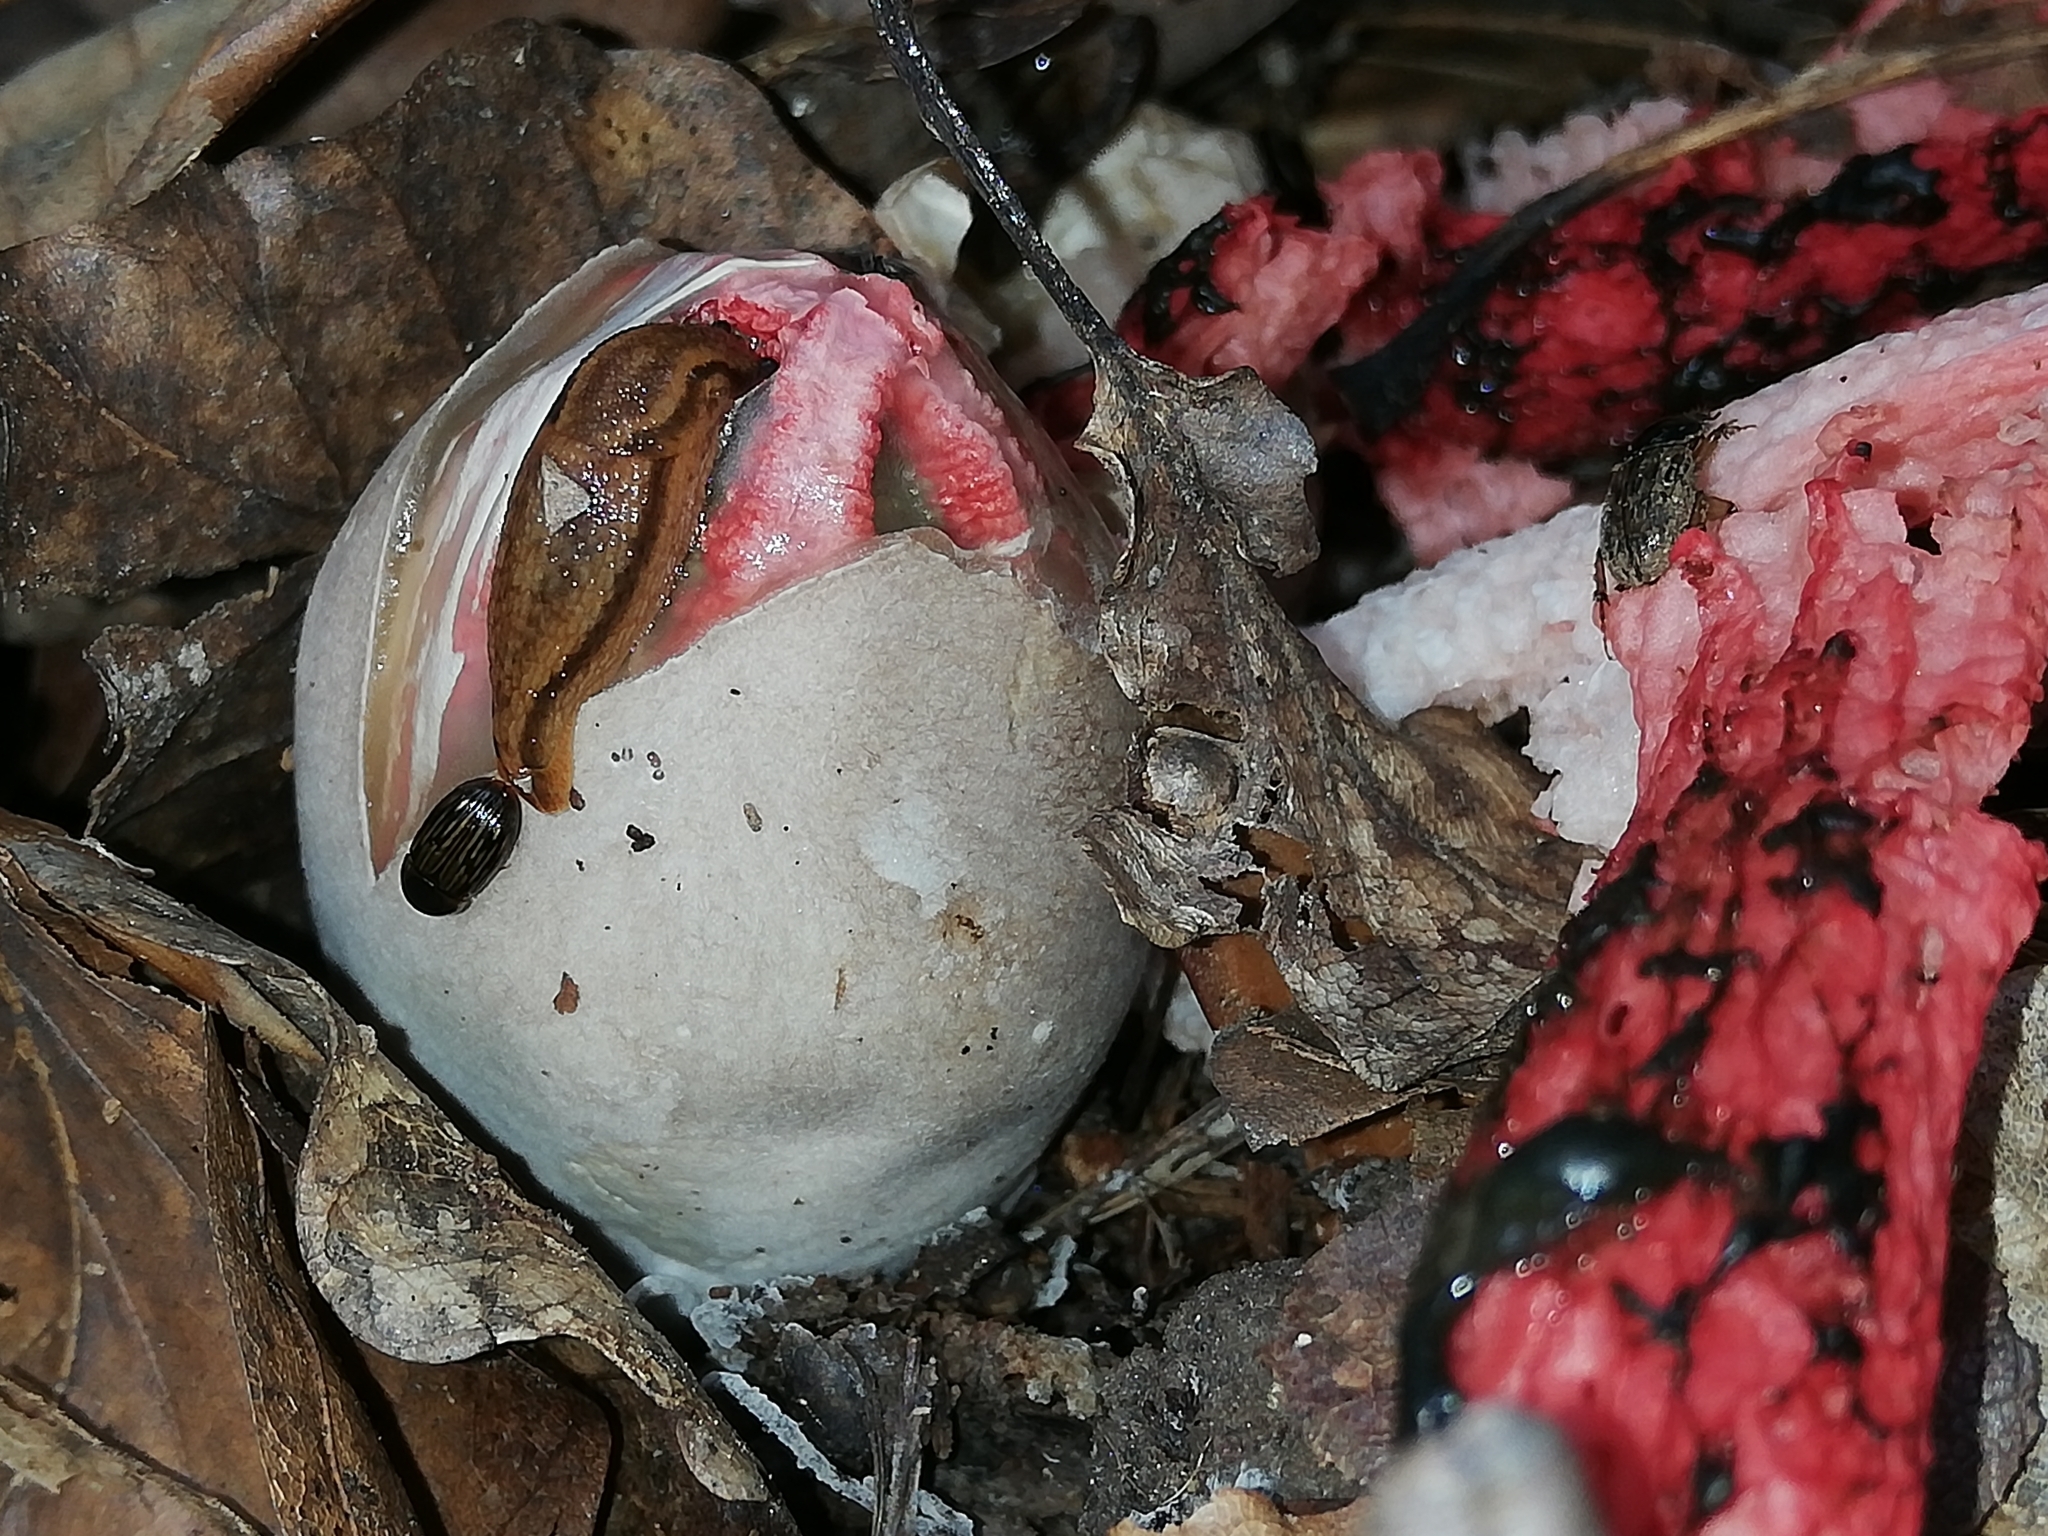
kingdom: Fungi
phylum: Basidiomycota
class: Agaricomycetes
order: Phallales
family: Phallaceae
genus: Clathrus
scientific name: Clathrus archeri
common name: Devil's fingers
